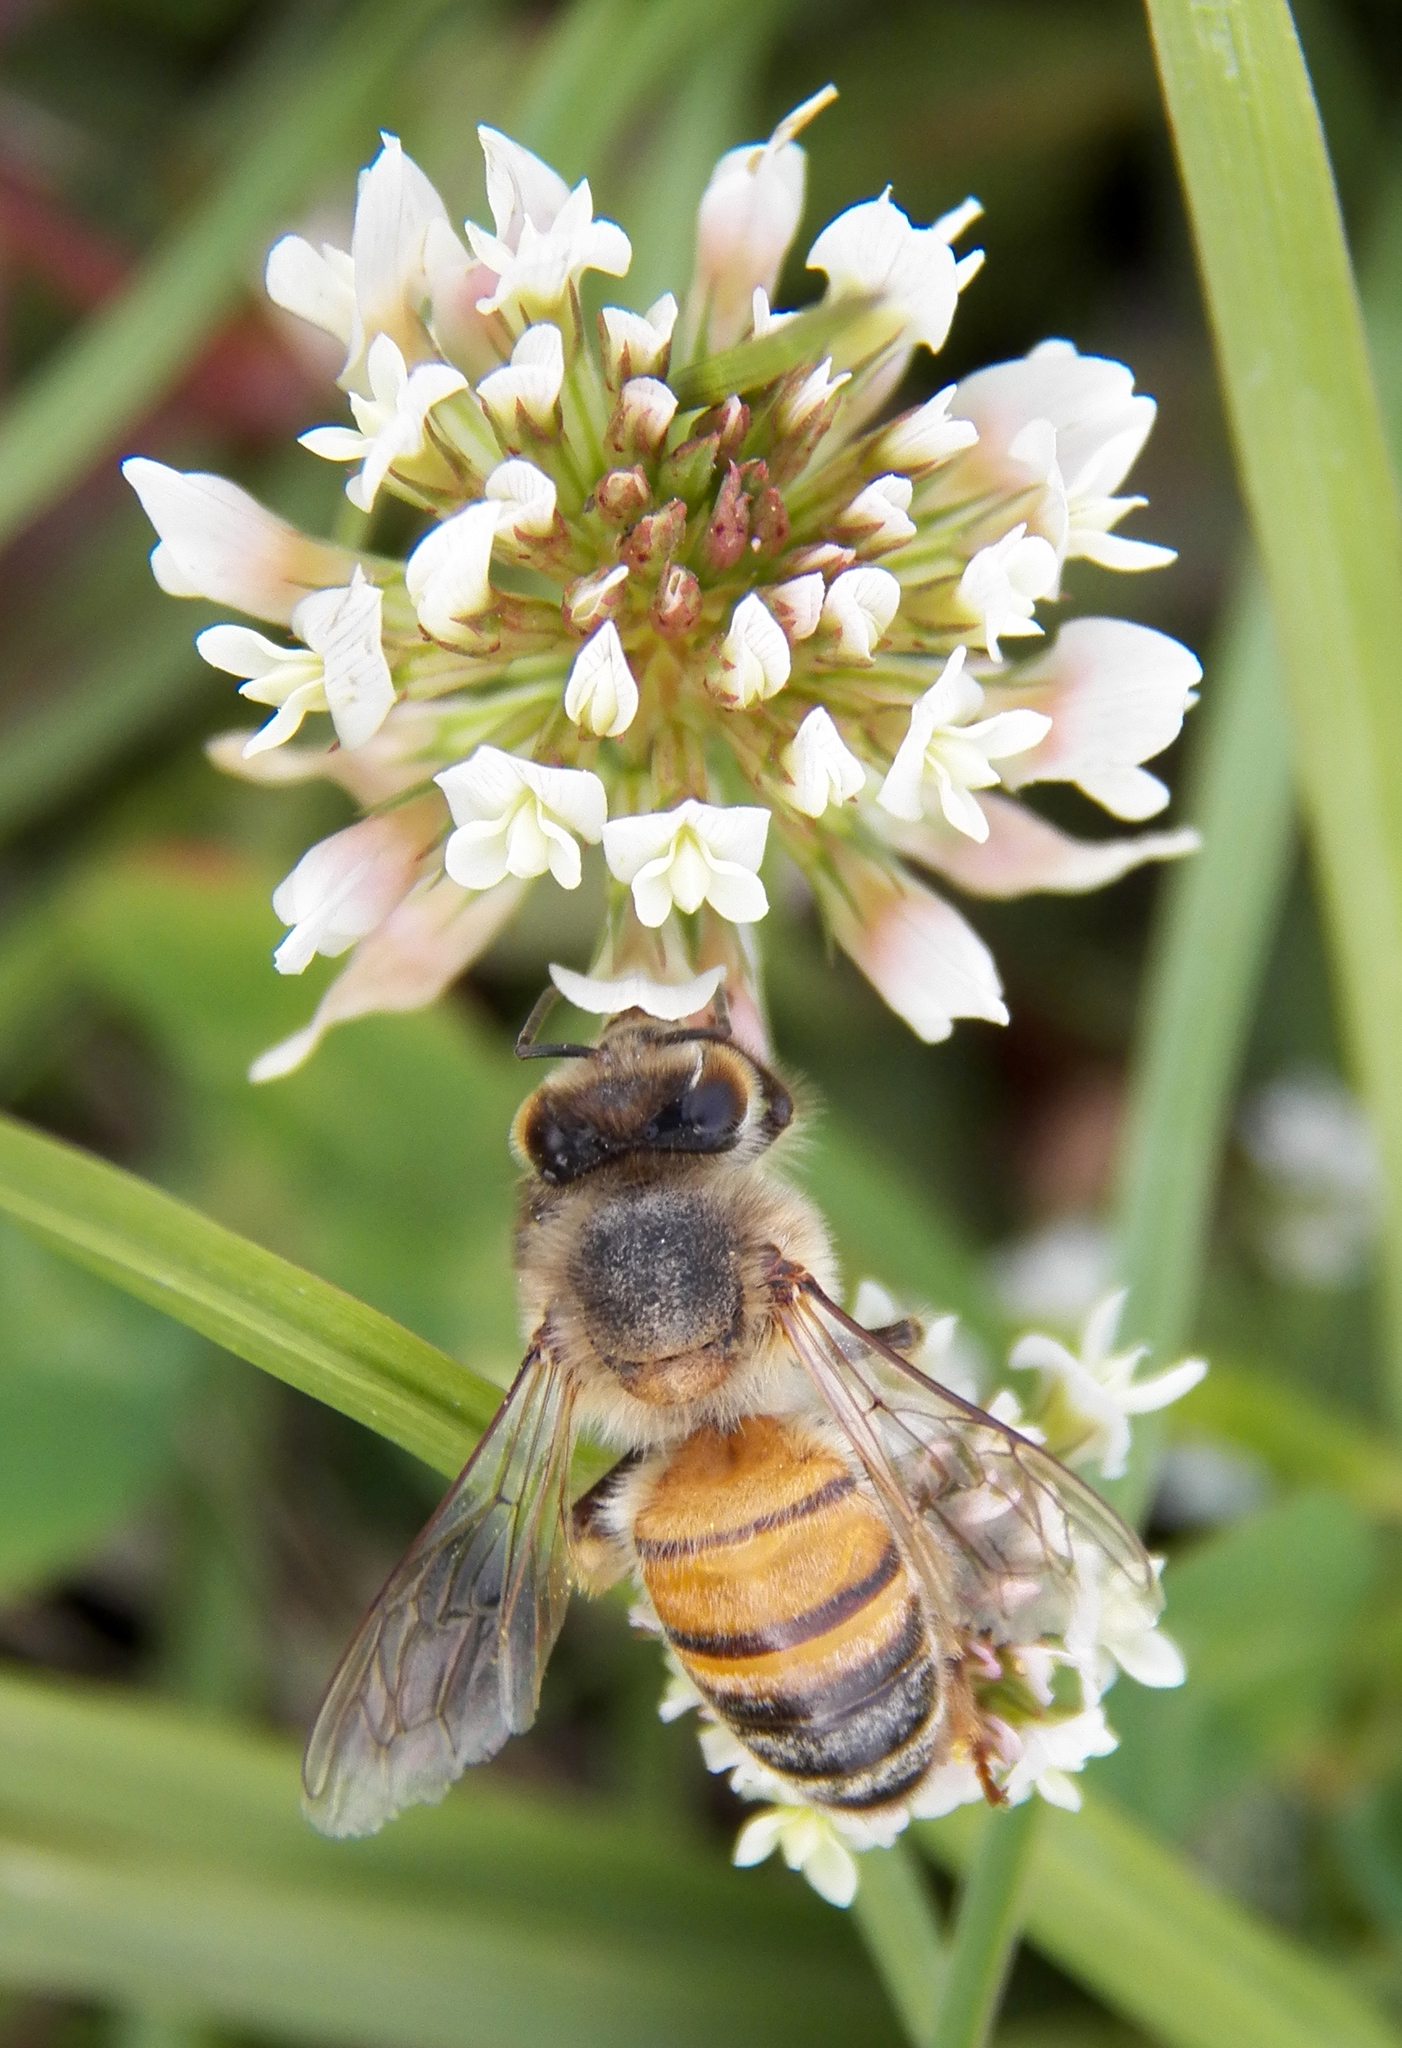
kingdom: Animalia
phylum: Arthropoda
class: Insecta
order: Hymenoptera
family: Apidae
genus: Apis
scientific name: Apis mellifera
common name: Honey bee
